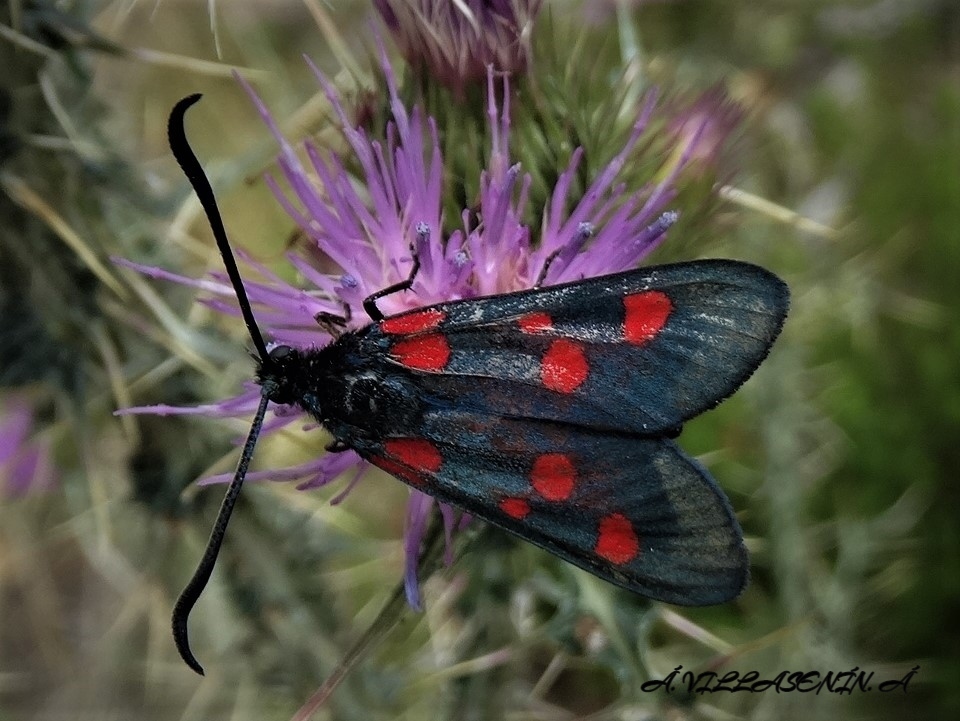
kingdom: Animalia
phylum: Arthropoda
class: Insecta
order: Lepidoptera
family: Zygaenidae
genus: Zygaena
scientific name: Zygaena trifolii
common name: Five-spot burnet
